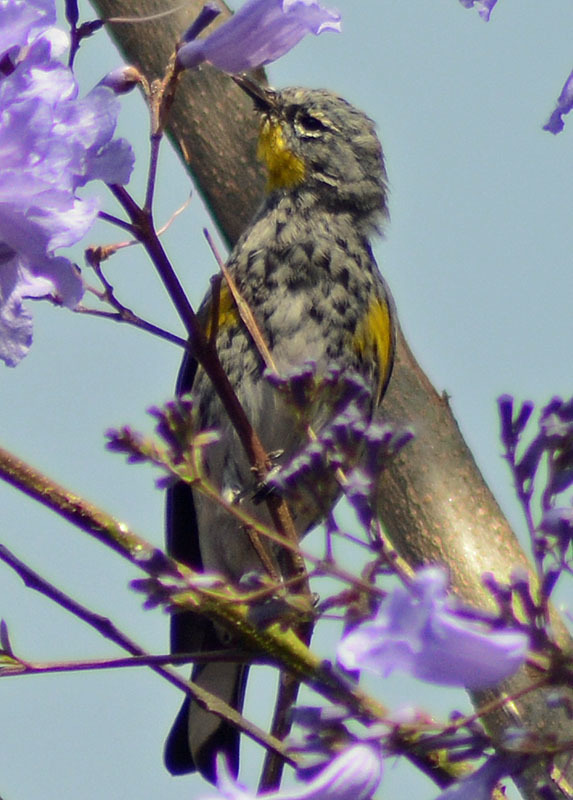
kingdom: Animalia
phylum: Chordata
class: Aves
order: Passeriformes
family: Parulidae
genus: Setophaga
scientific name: Setophaga auduboni
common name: Audubon's warbler
